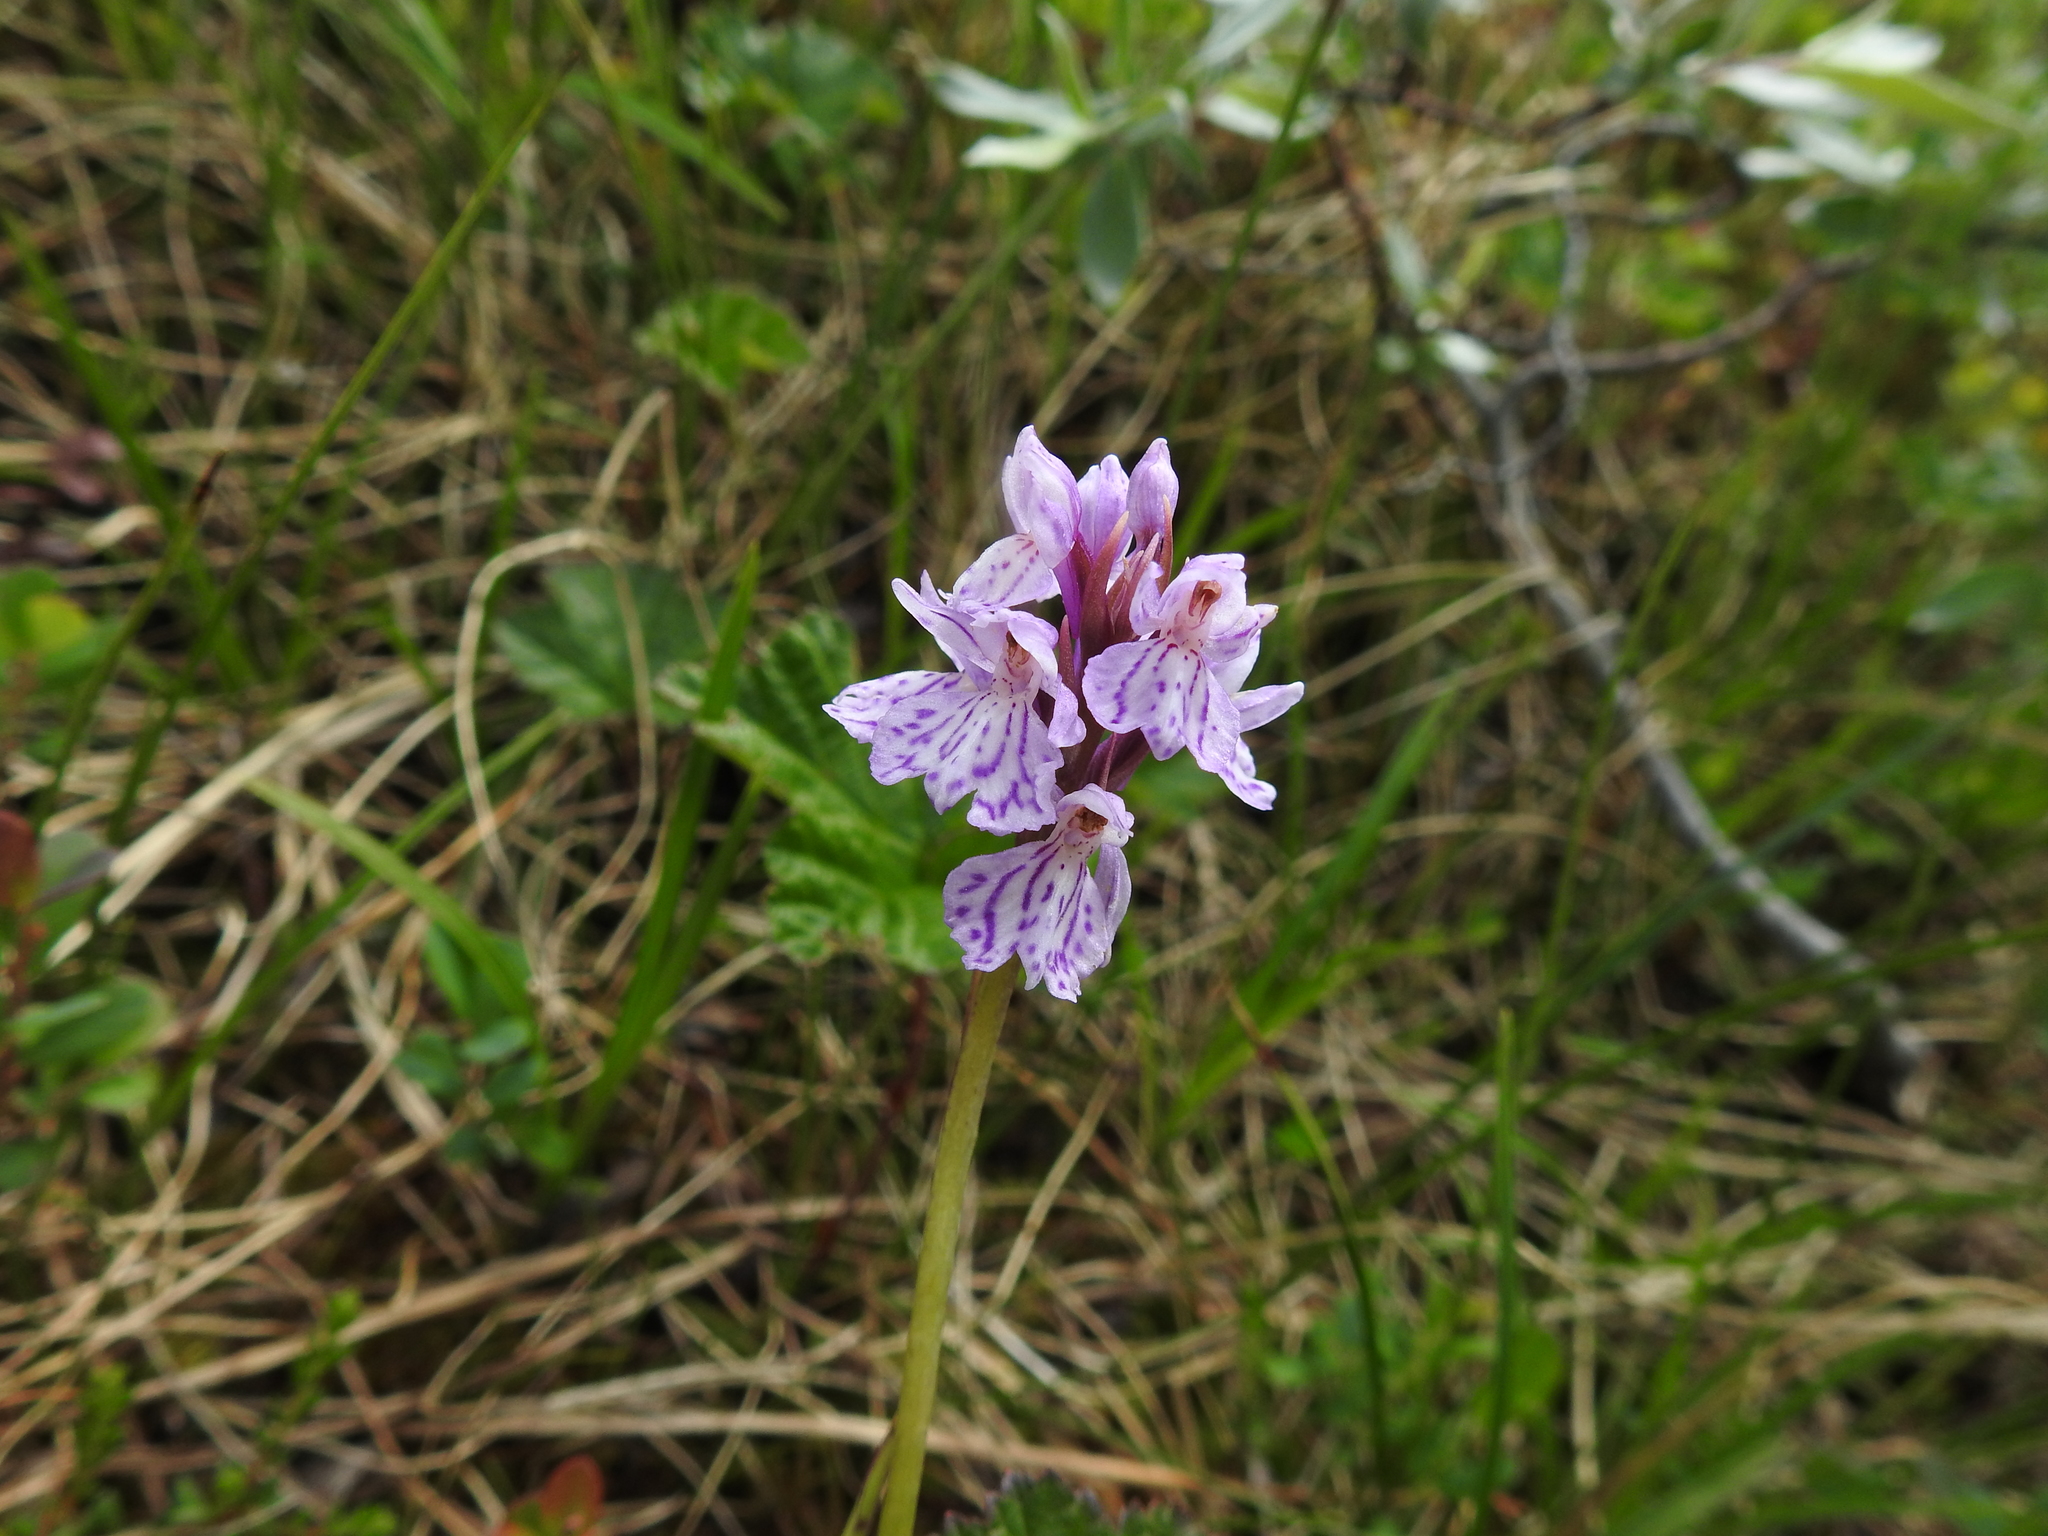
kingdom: Plantae
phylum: Tracheophyta
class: Liliopsida
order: Asparagales
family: Orchidaceae
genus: Dactylorhiza
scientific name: Dactylorhiza maculata
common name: Heath spotted-orchid
